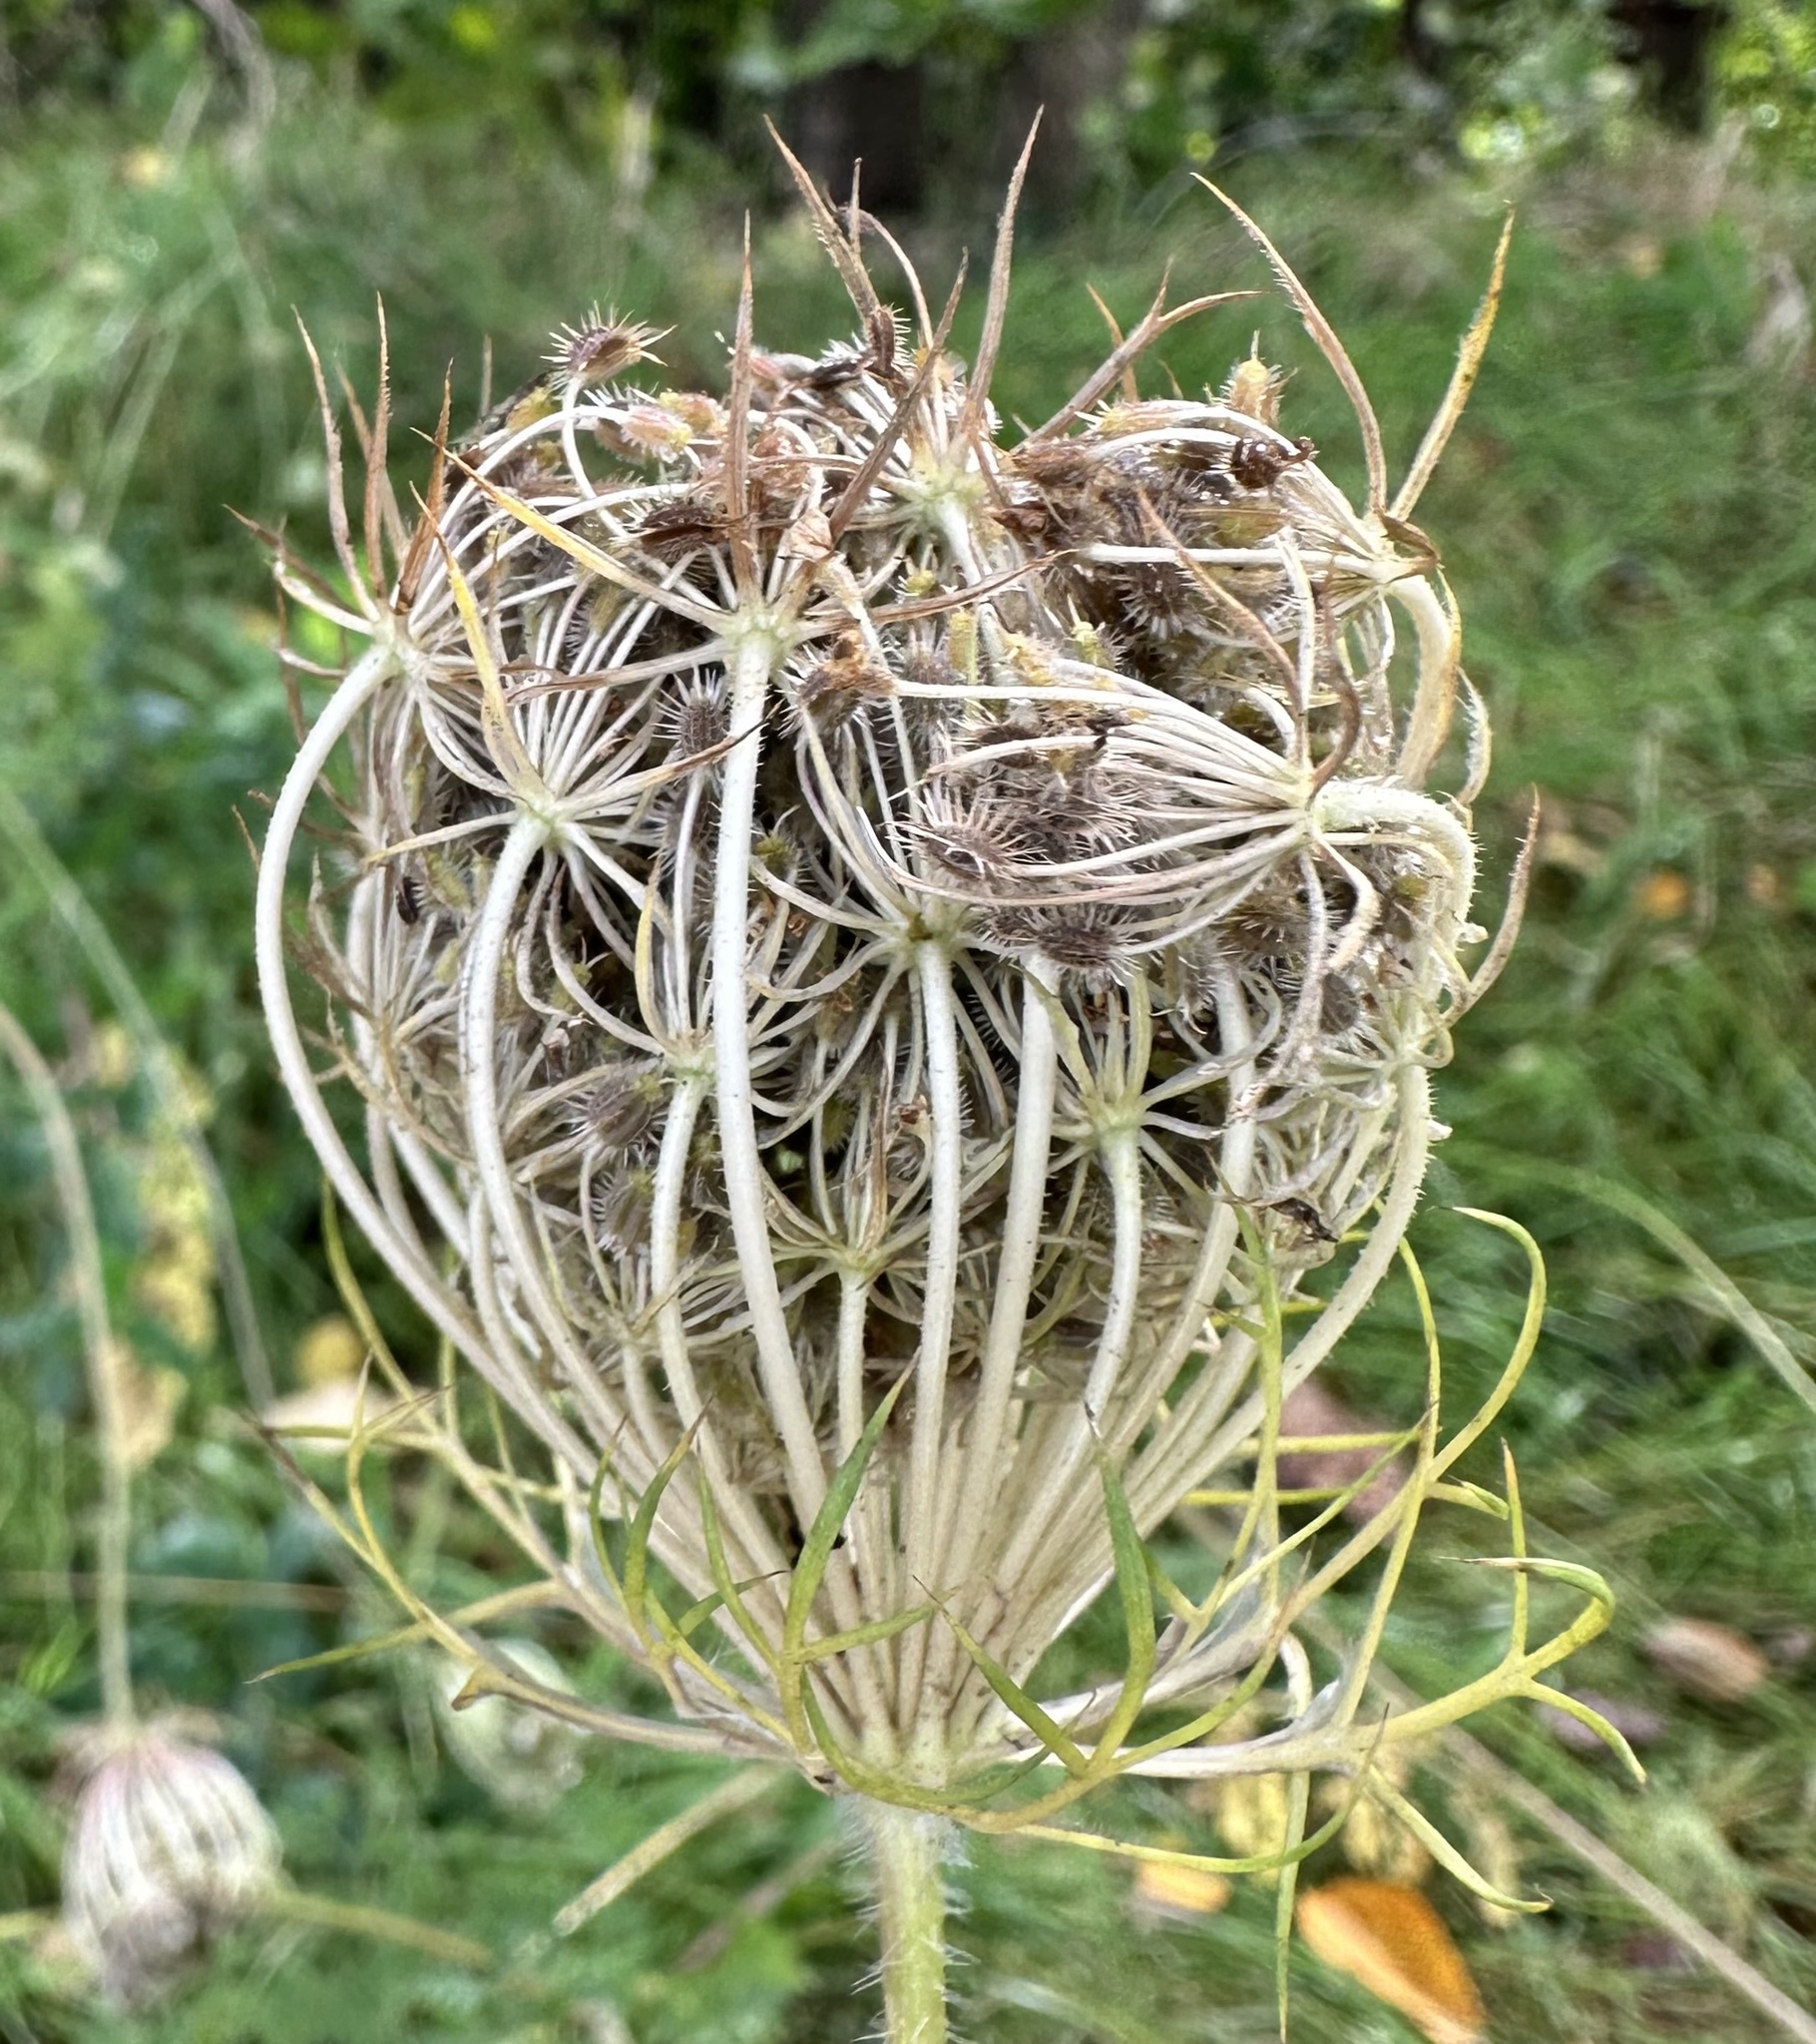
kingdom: Plantae
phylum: Tracheophyta
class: Magnoliopsida
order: Apiales
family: Apiaceae
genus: Daucus
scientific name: Daucus carota
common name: Wild carrot
